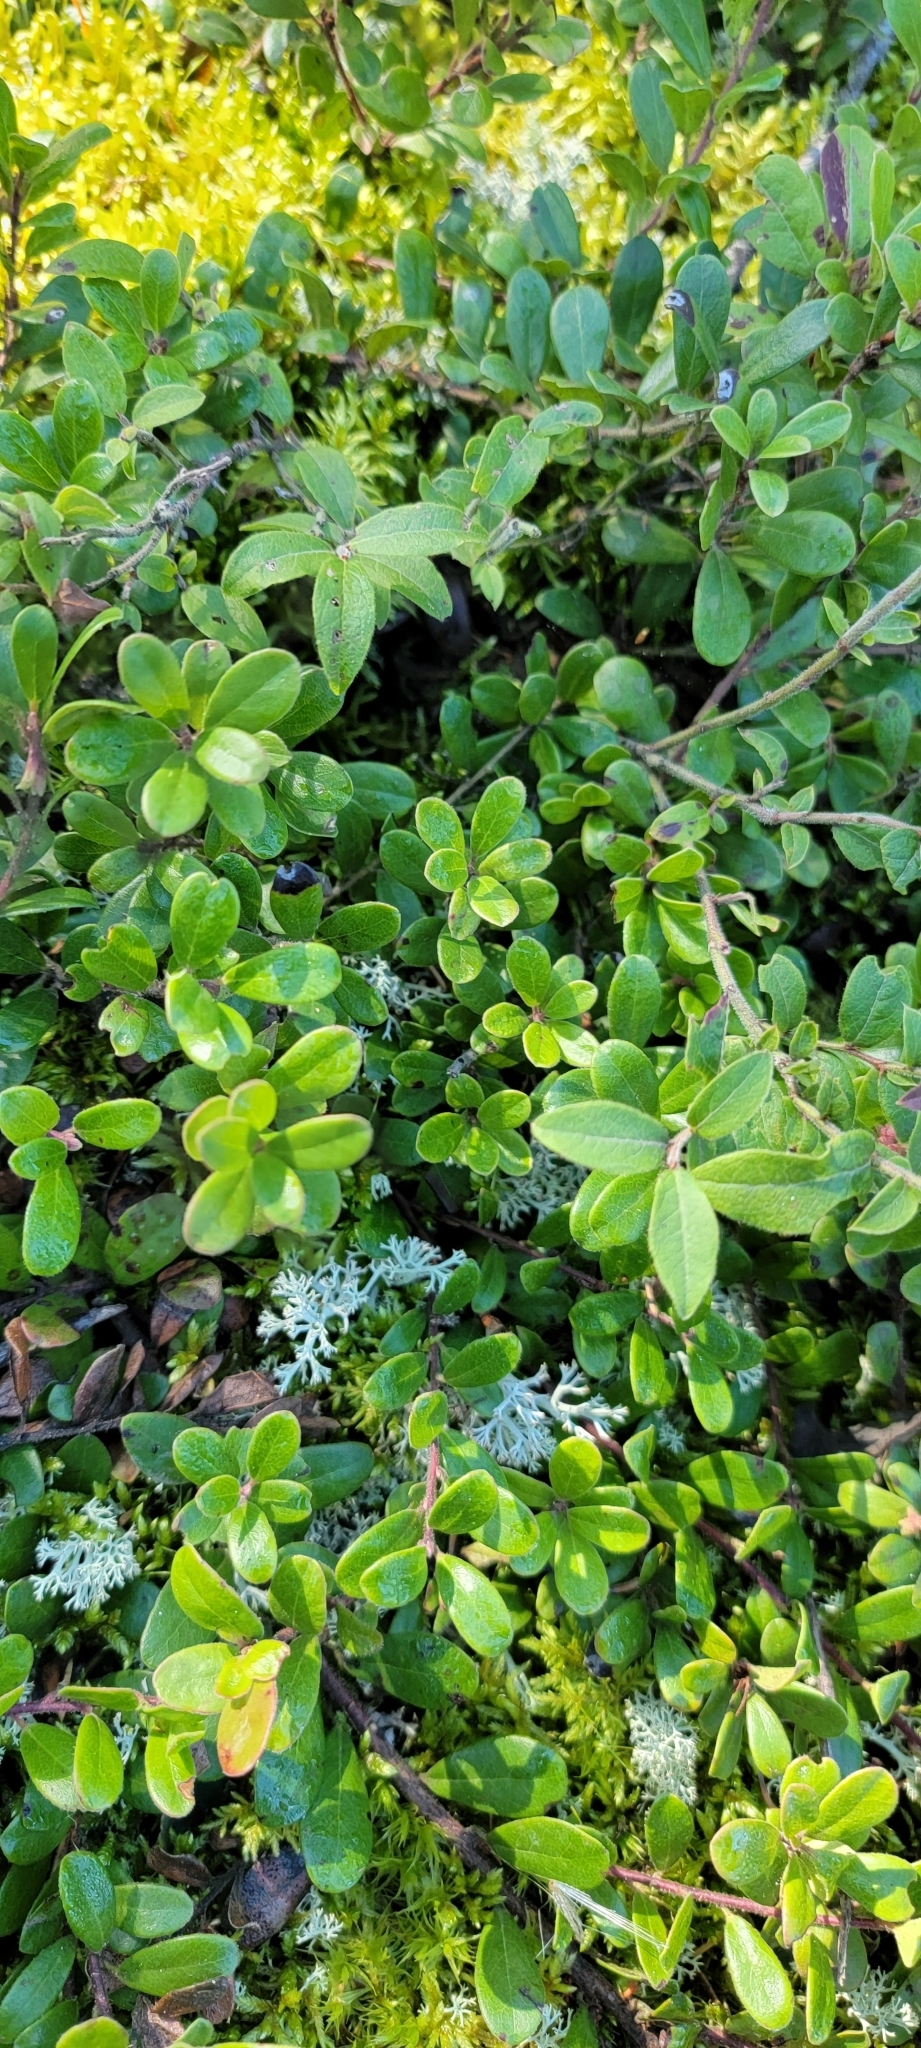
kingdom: Plantae
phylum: Tracheophyta
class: Magnoliopsida
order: Ericales
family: Ericaceae
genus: Arctostaphylos
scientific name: Arctostaphylos uva-ursi
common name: Bearberry
